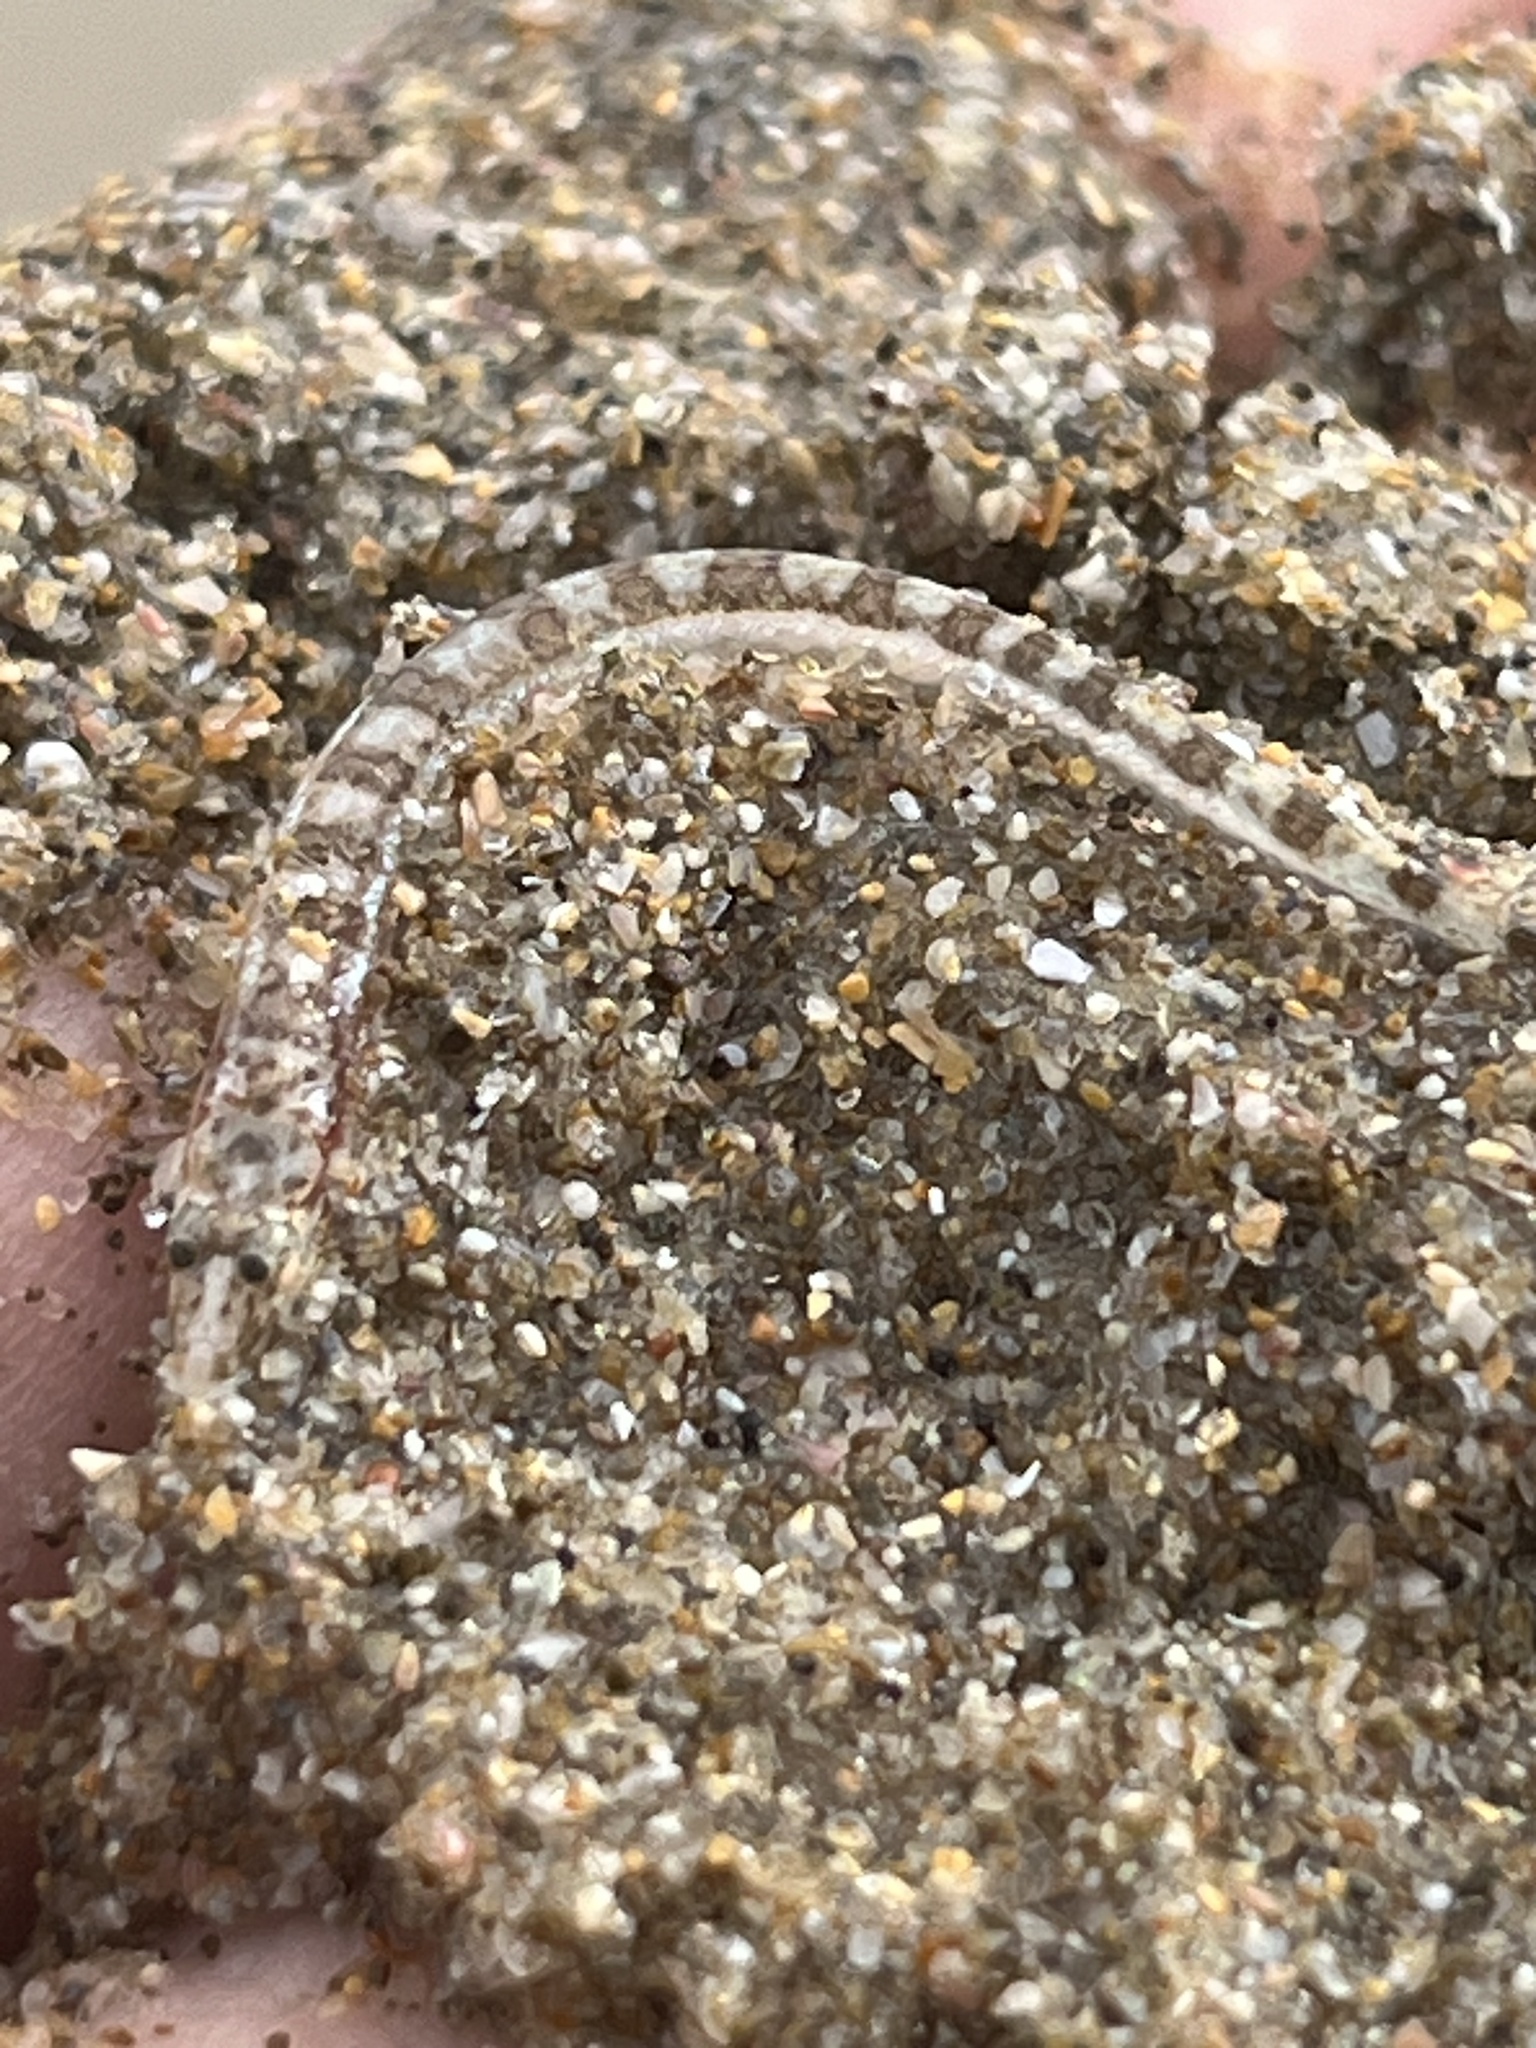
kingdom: Animalia
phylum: Chordata
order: Perciformes
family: Creediidae
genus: Limnichthys
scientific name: Limnichthys polyactis
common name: Tommyfish
